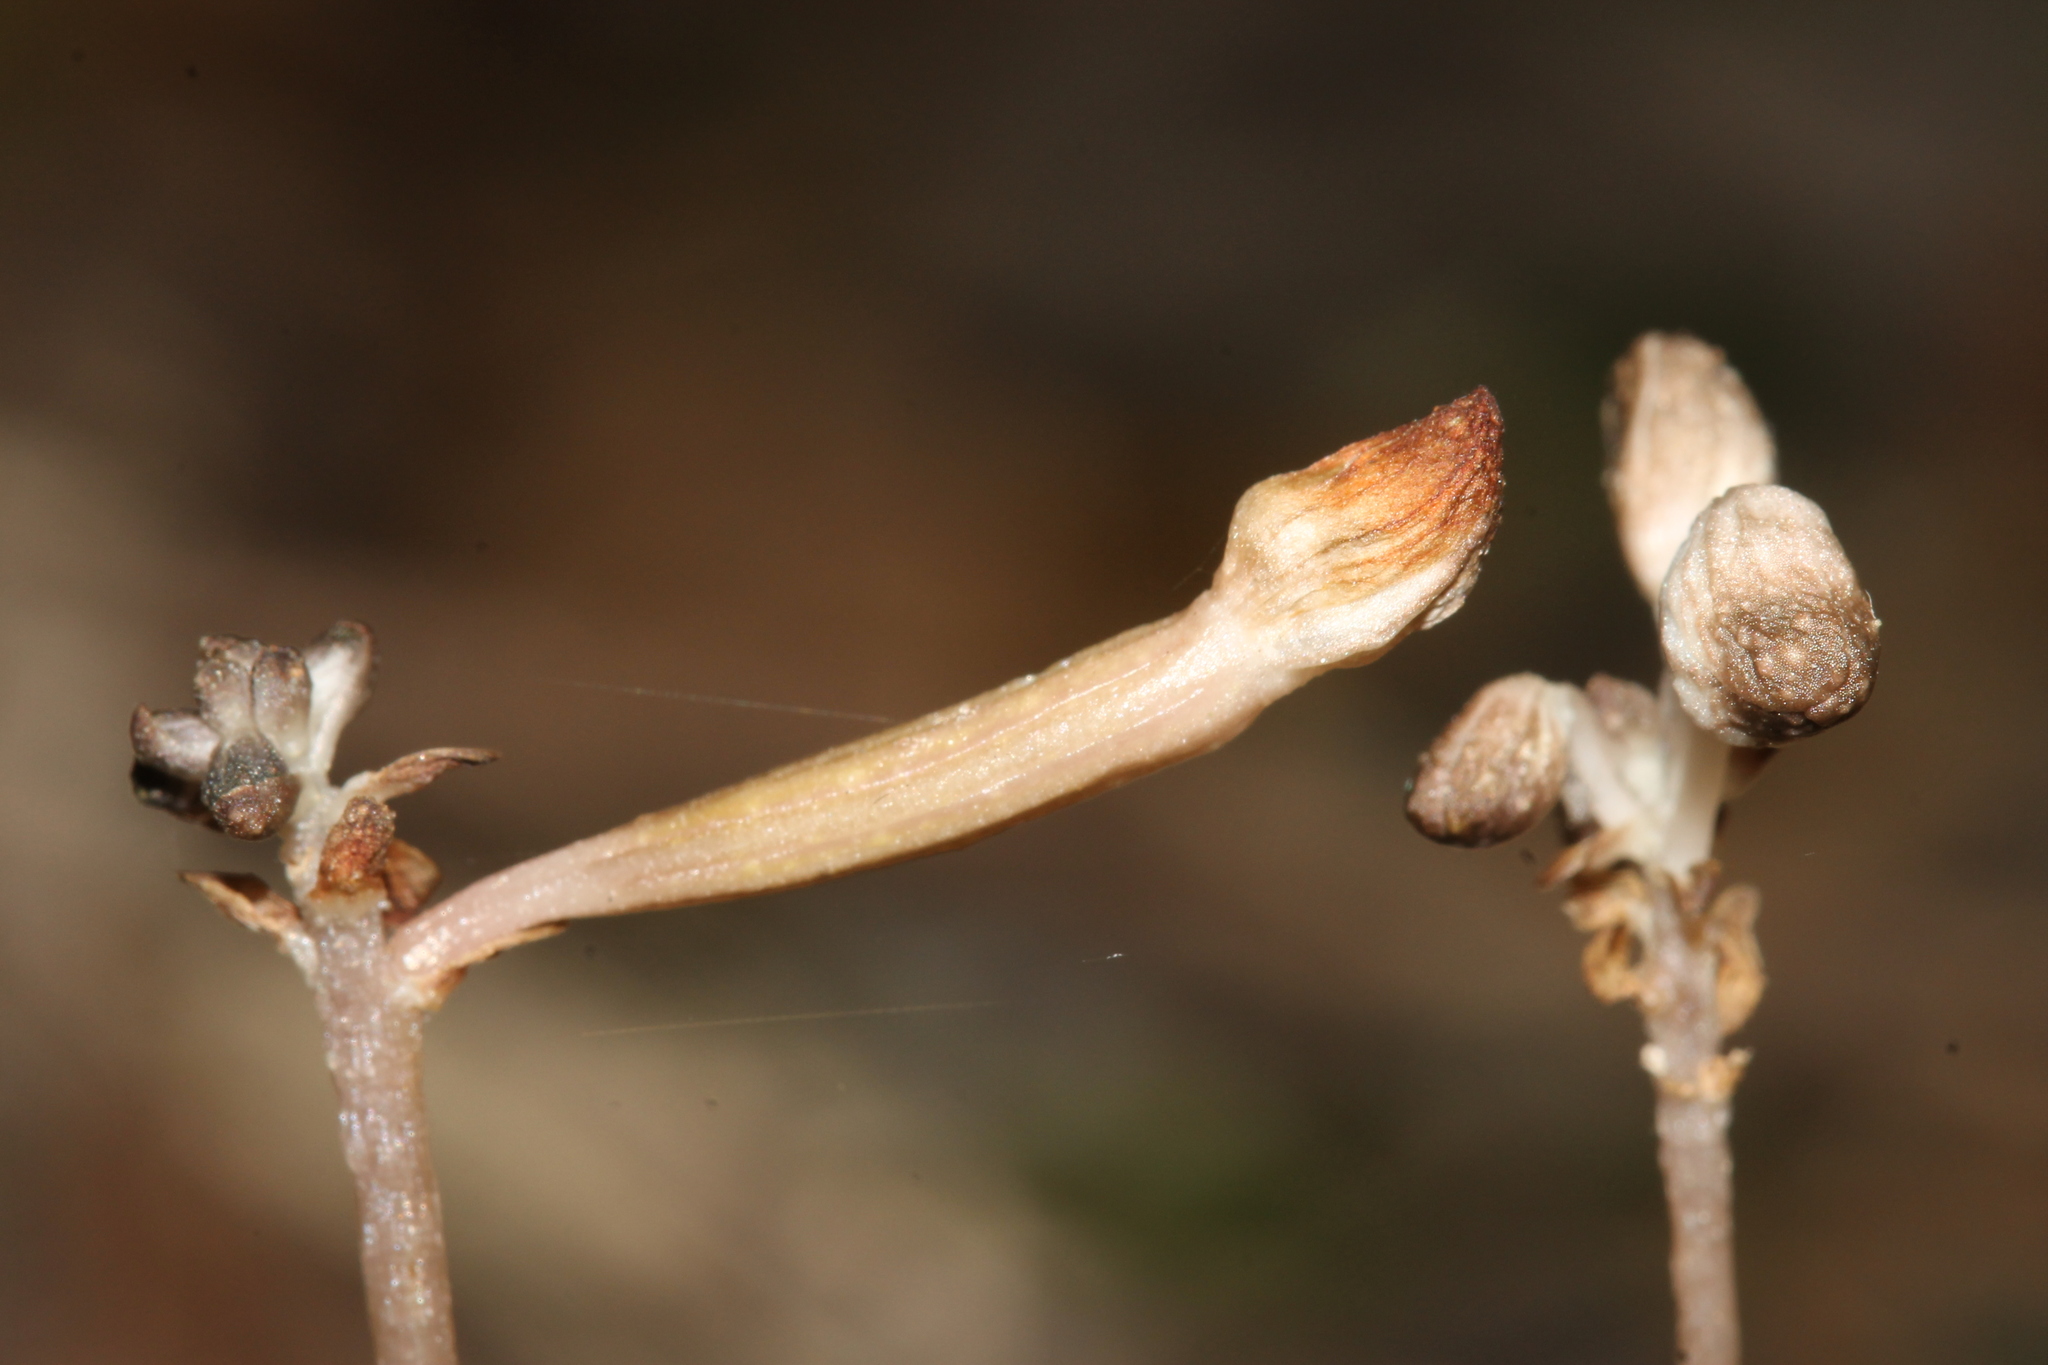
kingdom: Plantae
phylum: Tracheophyta
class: Liliopsida
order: Asparagales
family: Orchidaceae
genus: Didymoplexis
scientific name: Didymoplexis verrucosa
